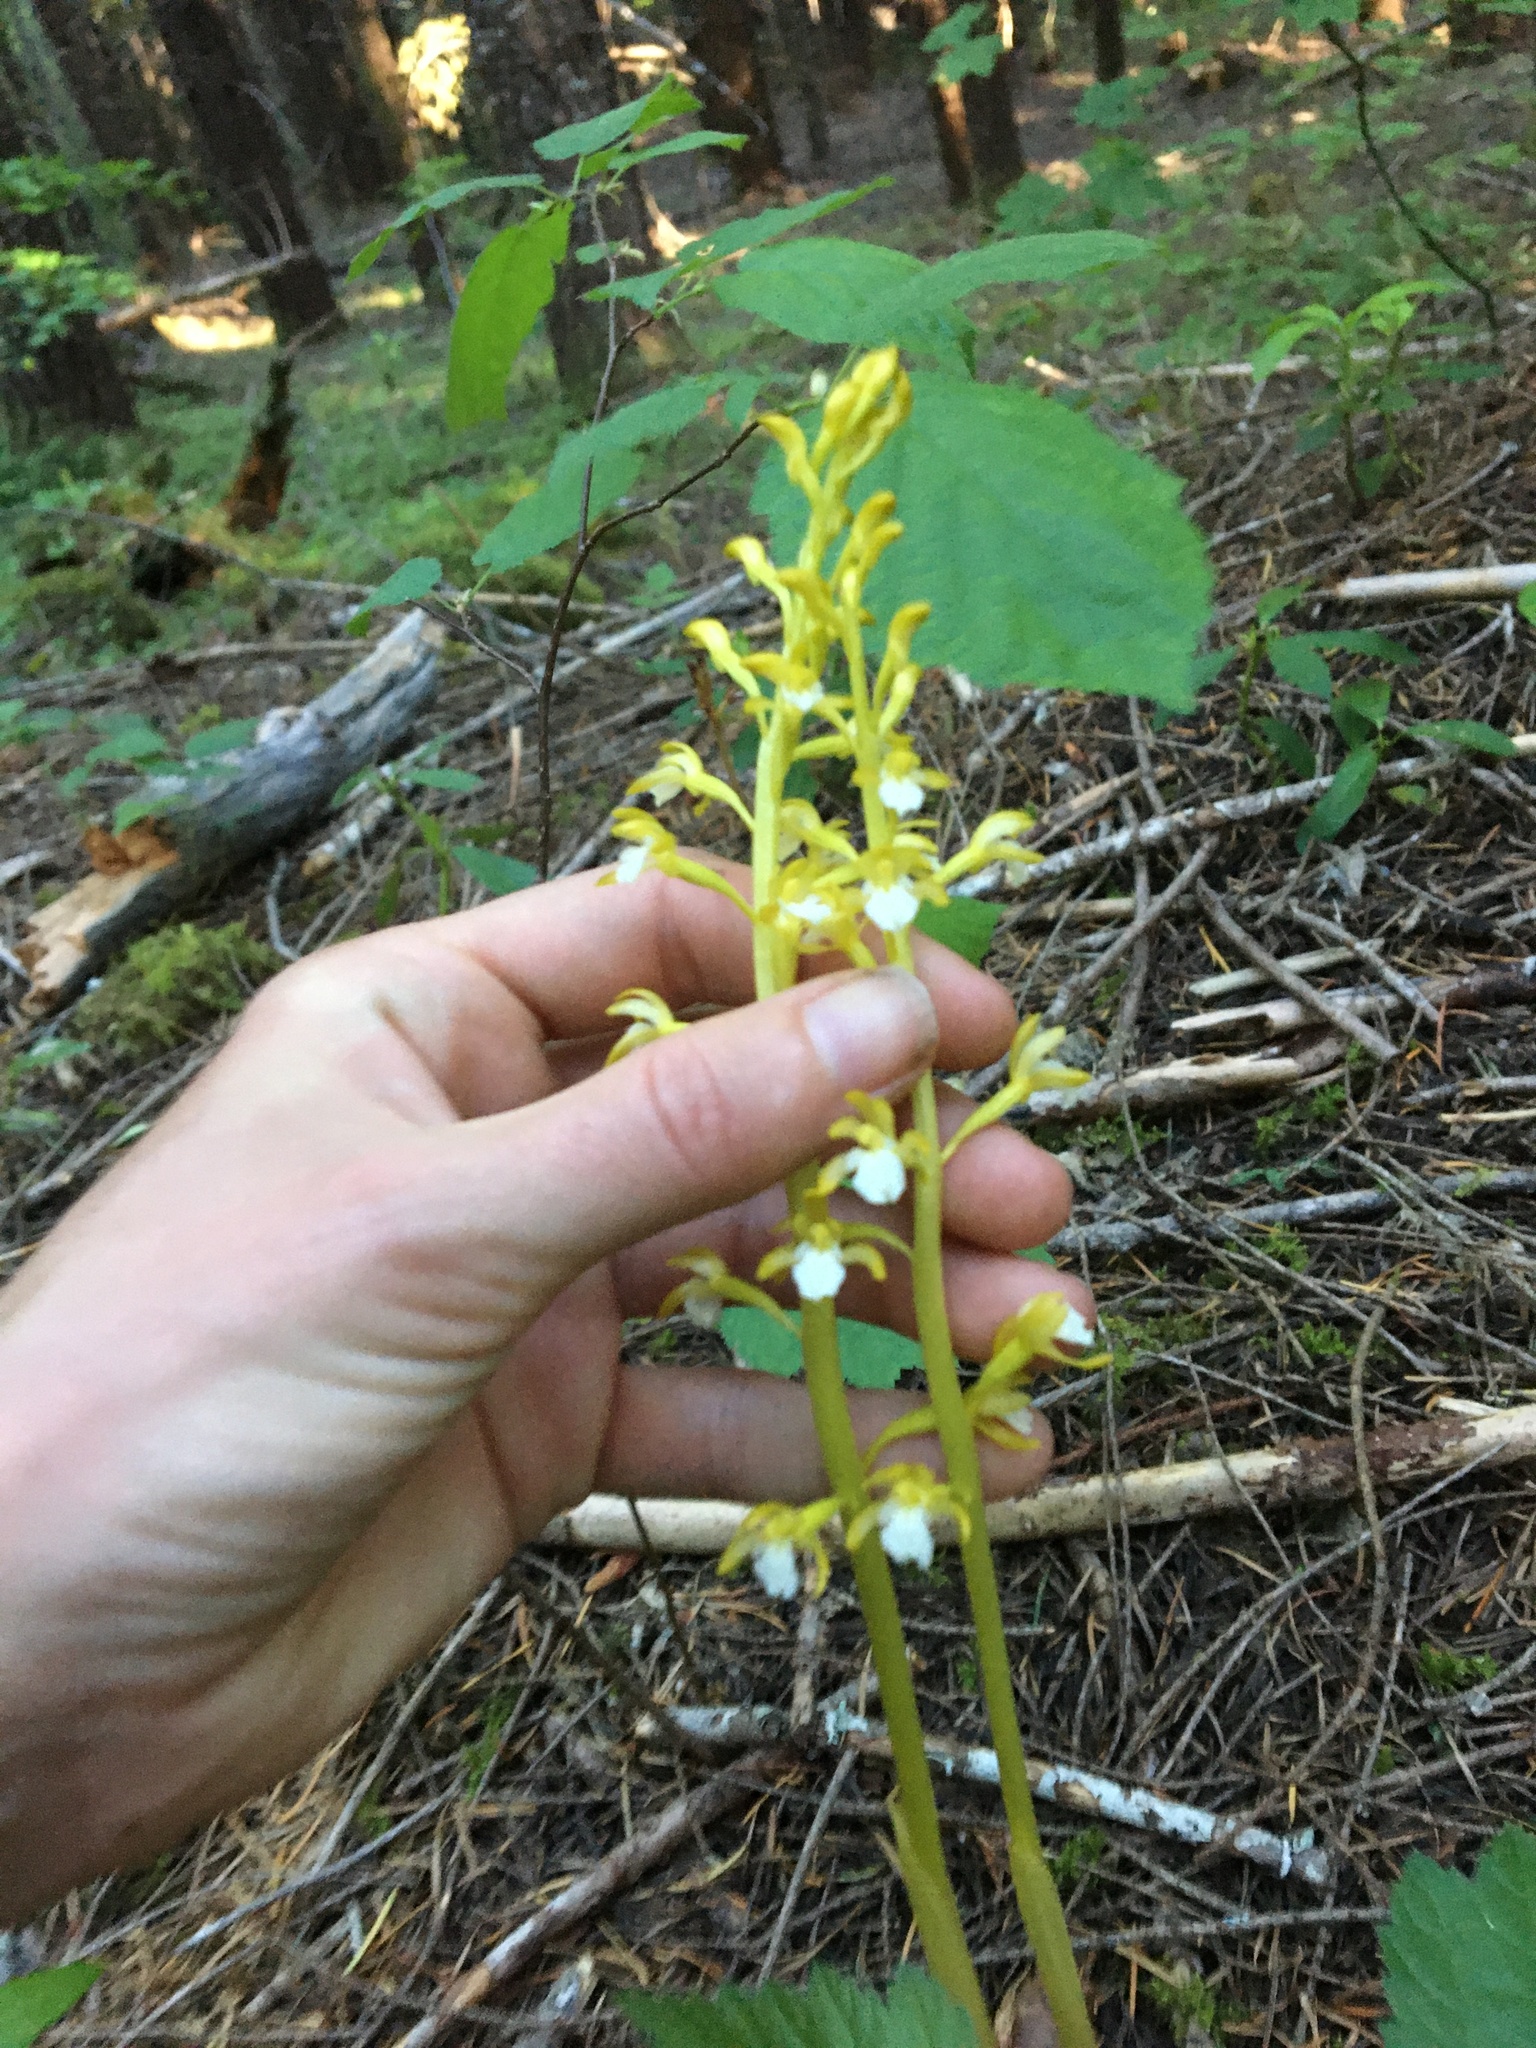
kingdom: Plantae
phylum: Tracheophyta
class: Liliopsida
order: Asparagales
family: Orchidaceae
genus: Corallorhiza
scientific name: Corallorhiza maculata
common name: Spotted coralroot
